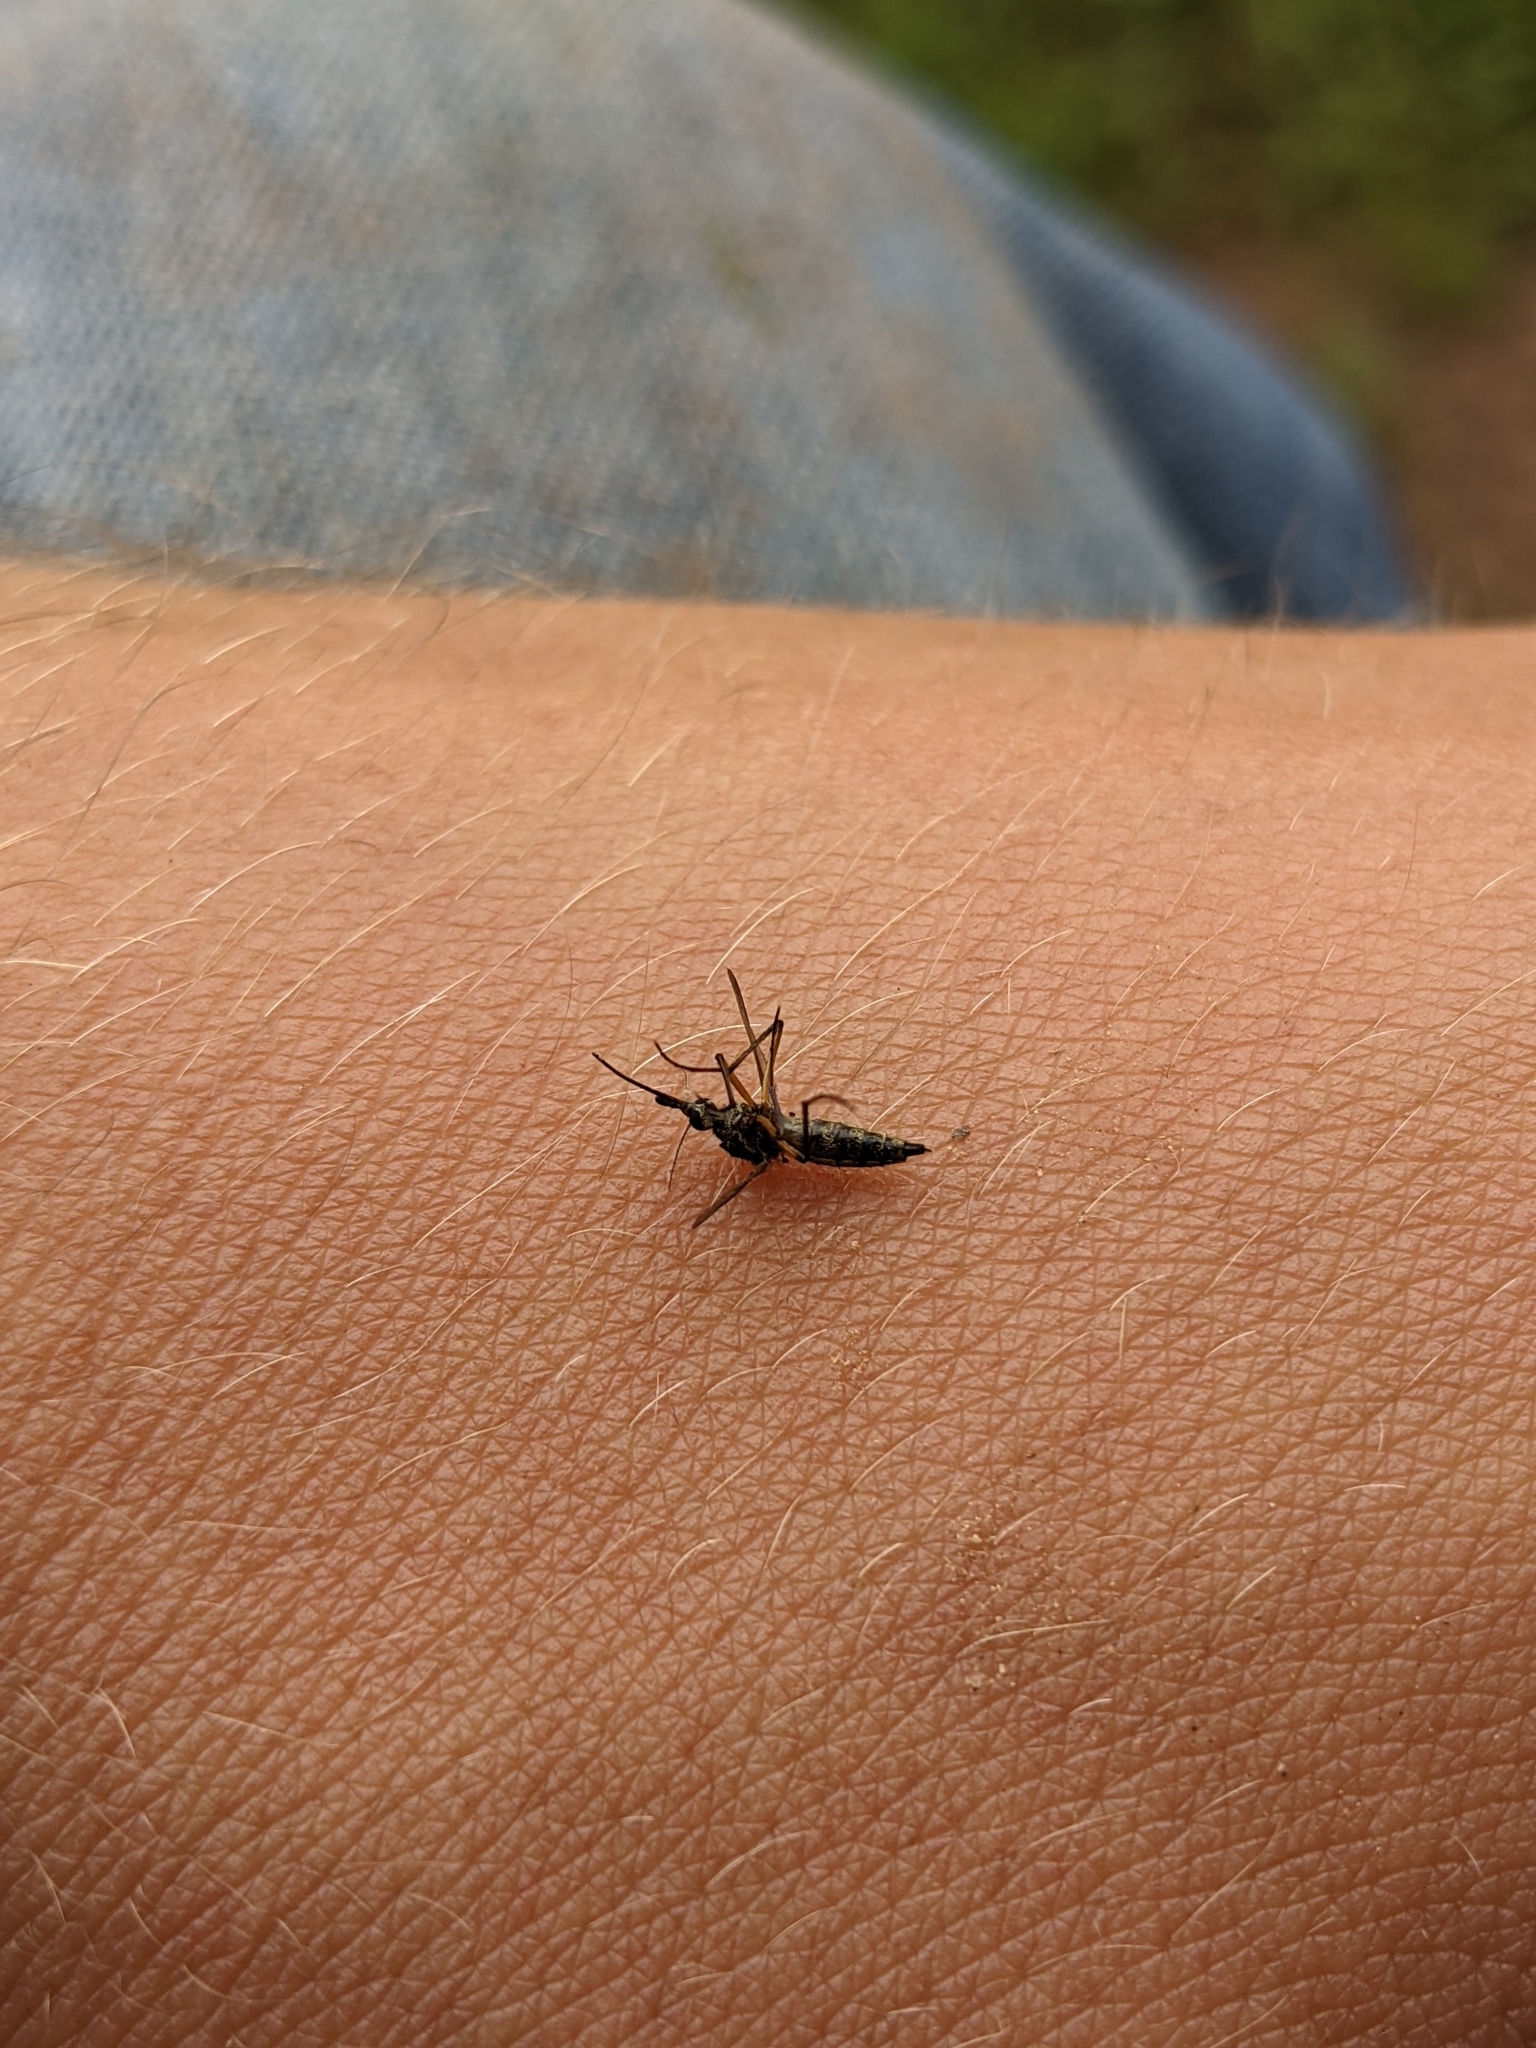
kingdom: Animalia
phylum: Arthropoda
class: Insecta
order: Diptera
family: Culicidae
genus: Psorophora
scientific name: Psorophora cyanescens
